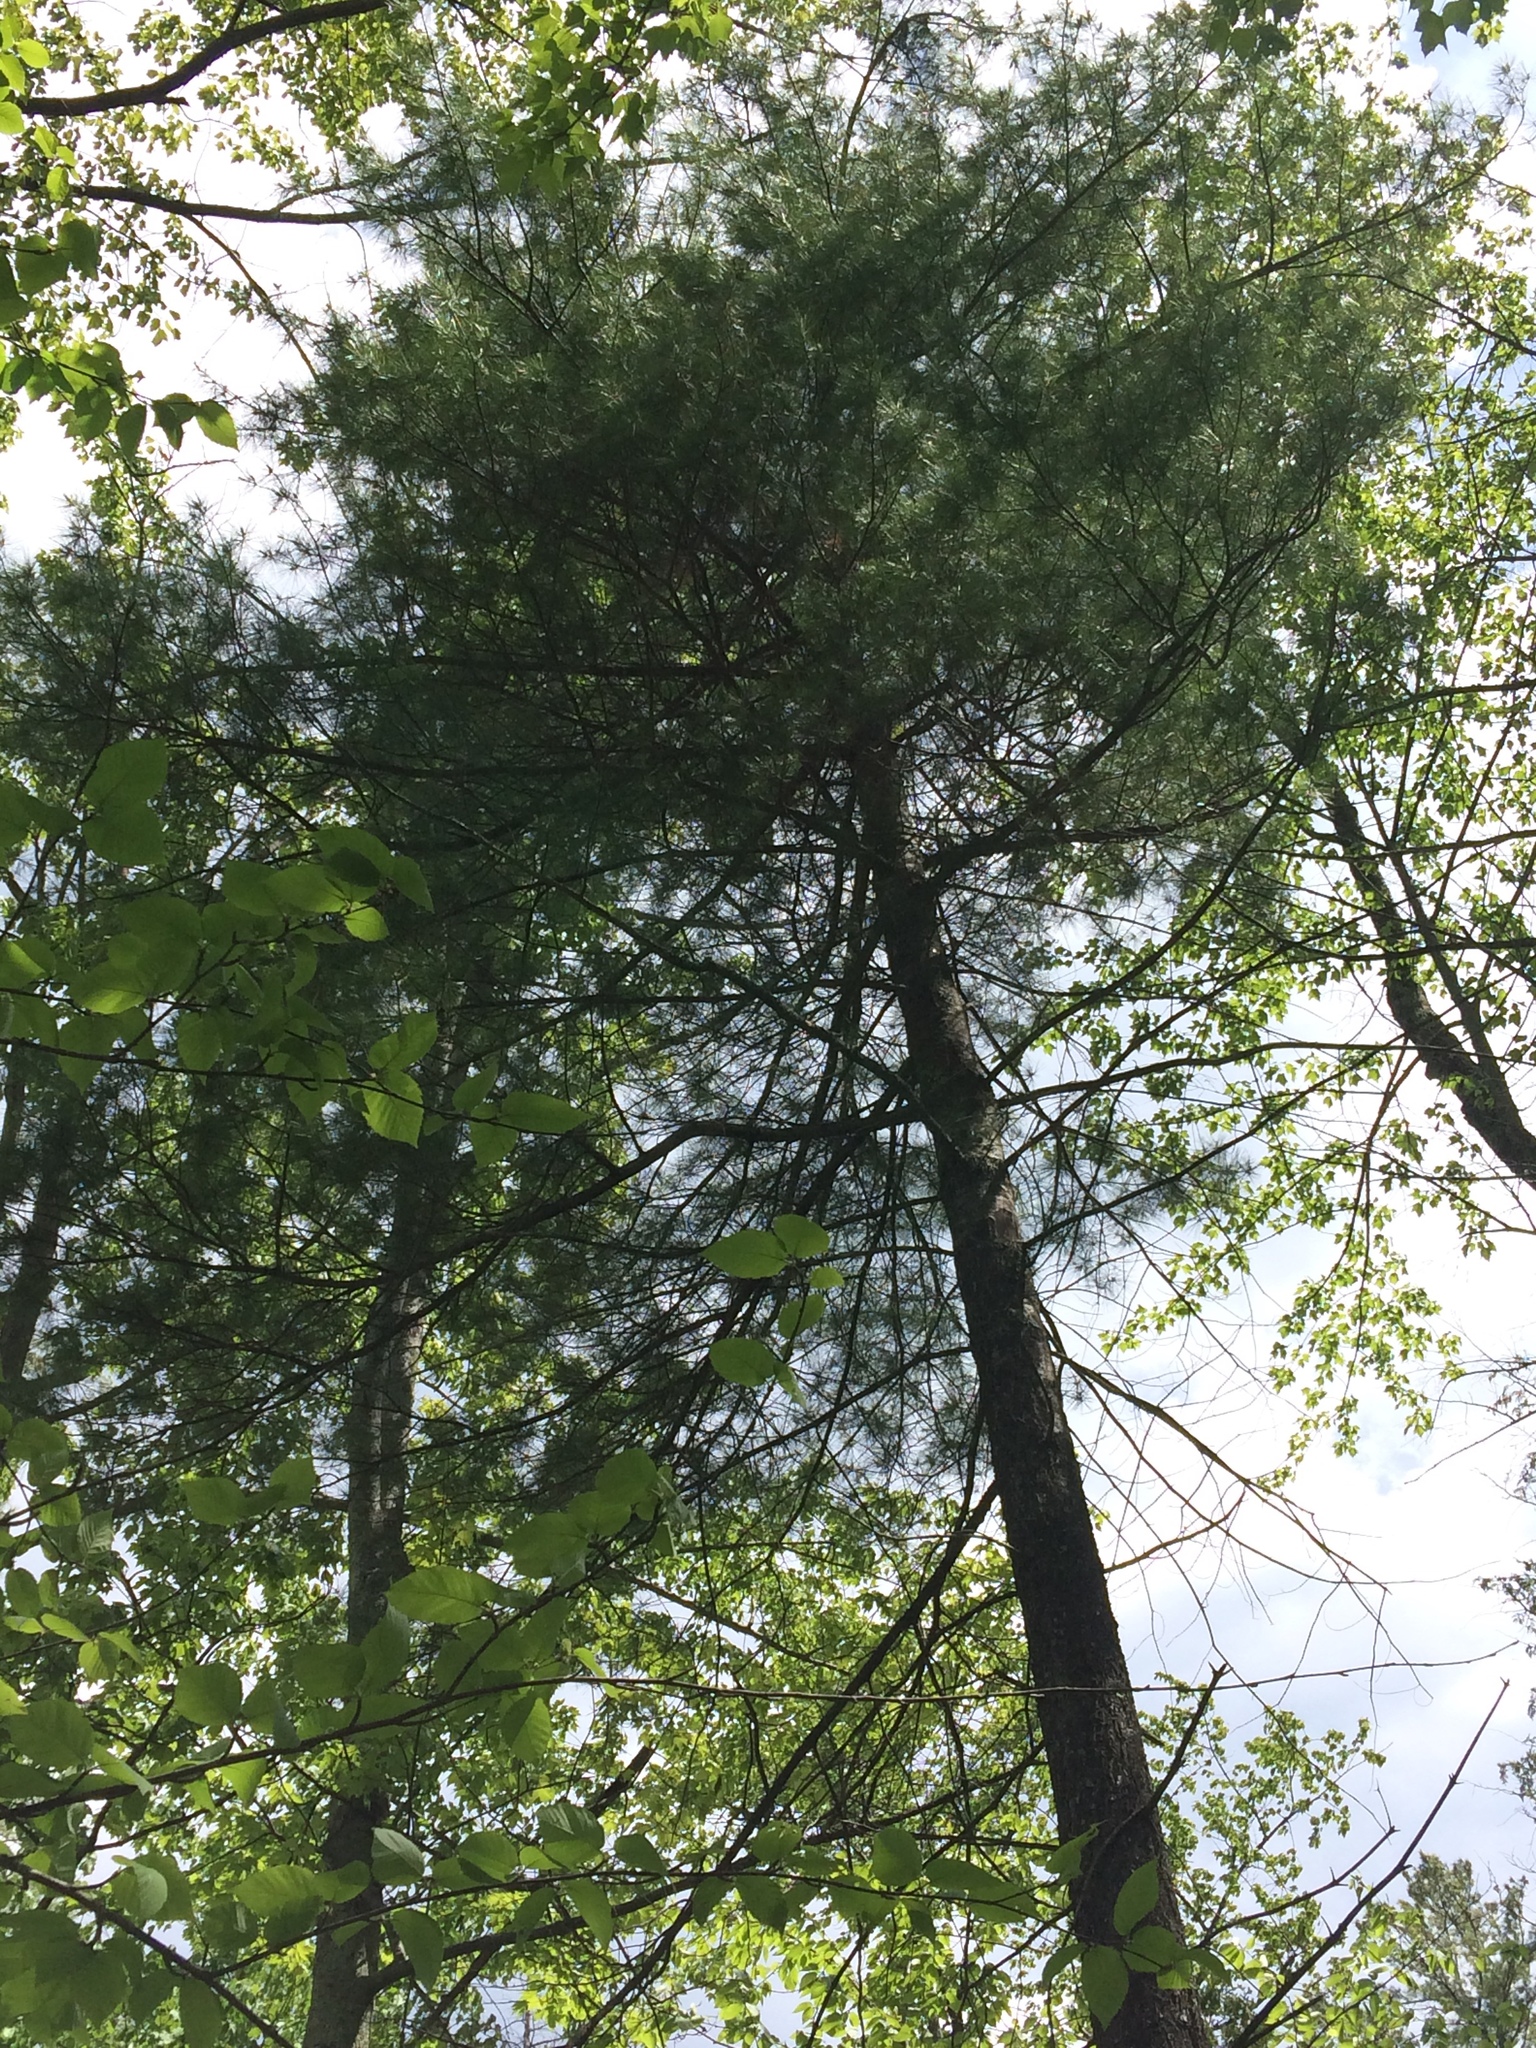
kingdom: Plantae
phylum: Tracheophyta
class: Pinopsida
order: Pinales
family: Pinaceae
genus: Pinus
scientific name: Pinus strobus
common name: Weymouth pine
